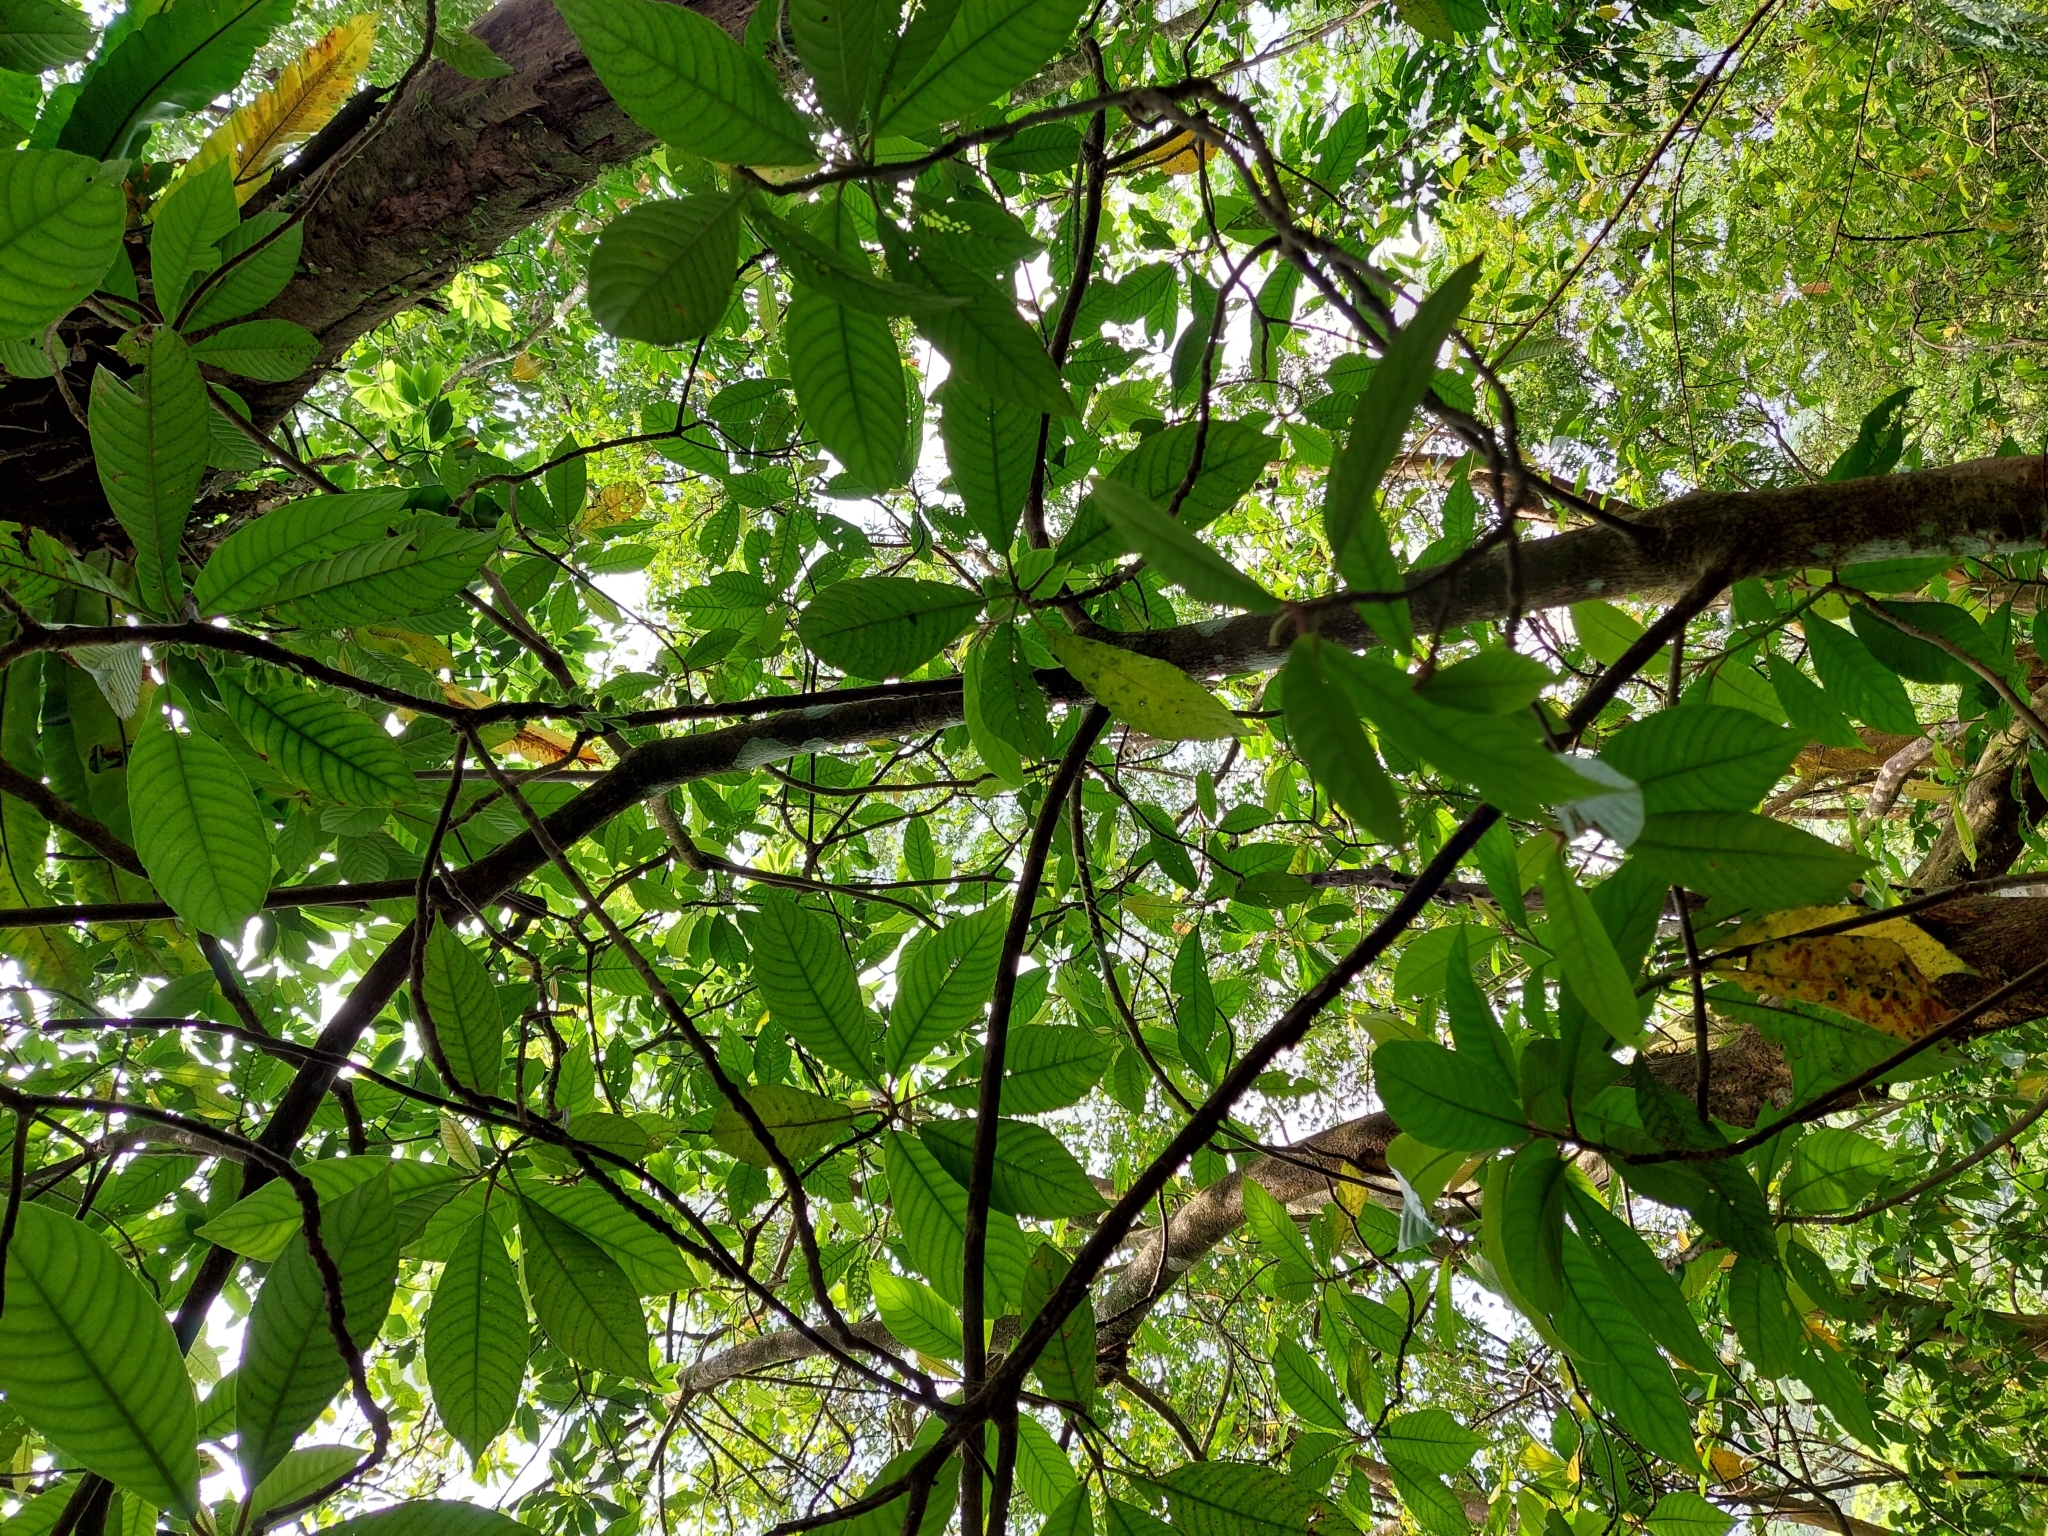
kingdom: Plantae
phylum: Tracheophyta
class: Magnoliopsida
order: Ericales
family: Actinidiaceae
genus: Saurauia
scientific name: Saurauia tristyla
